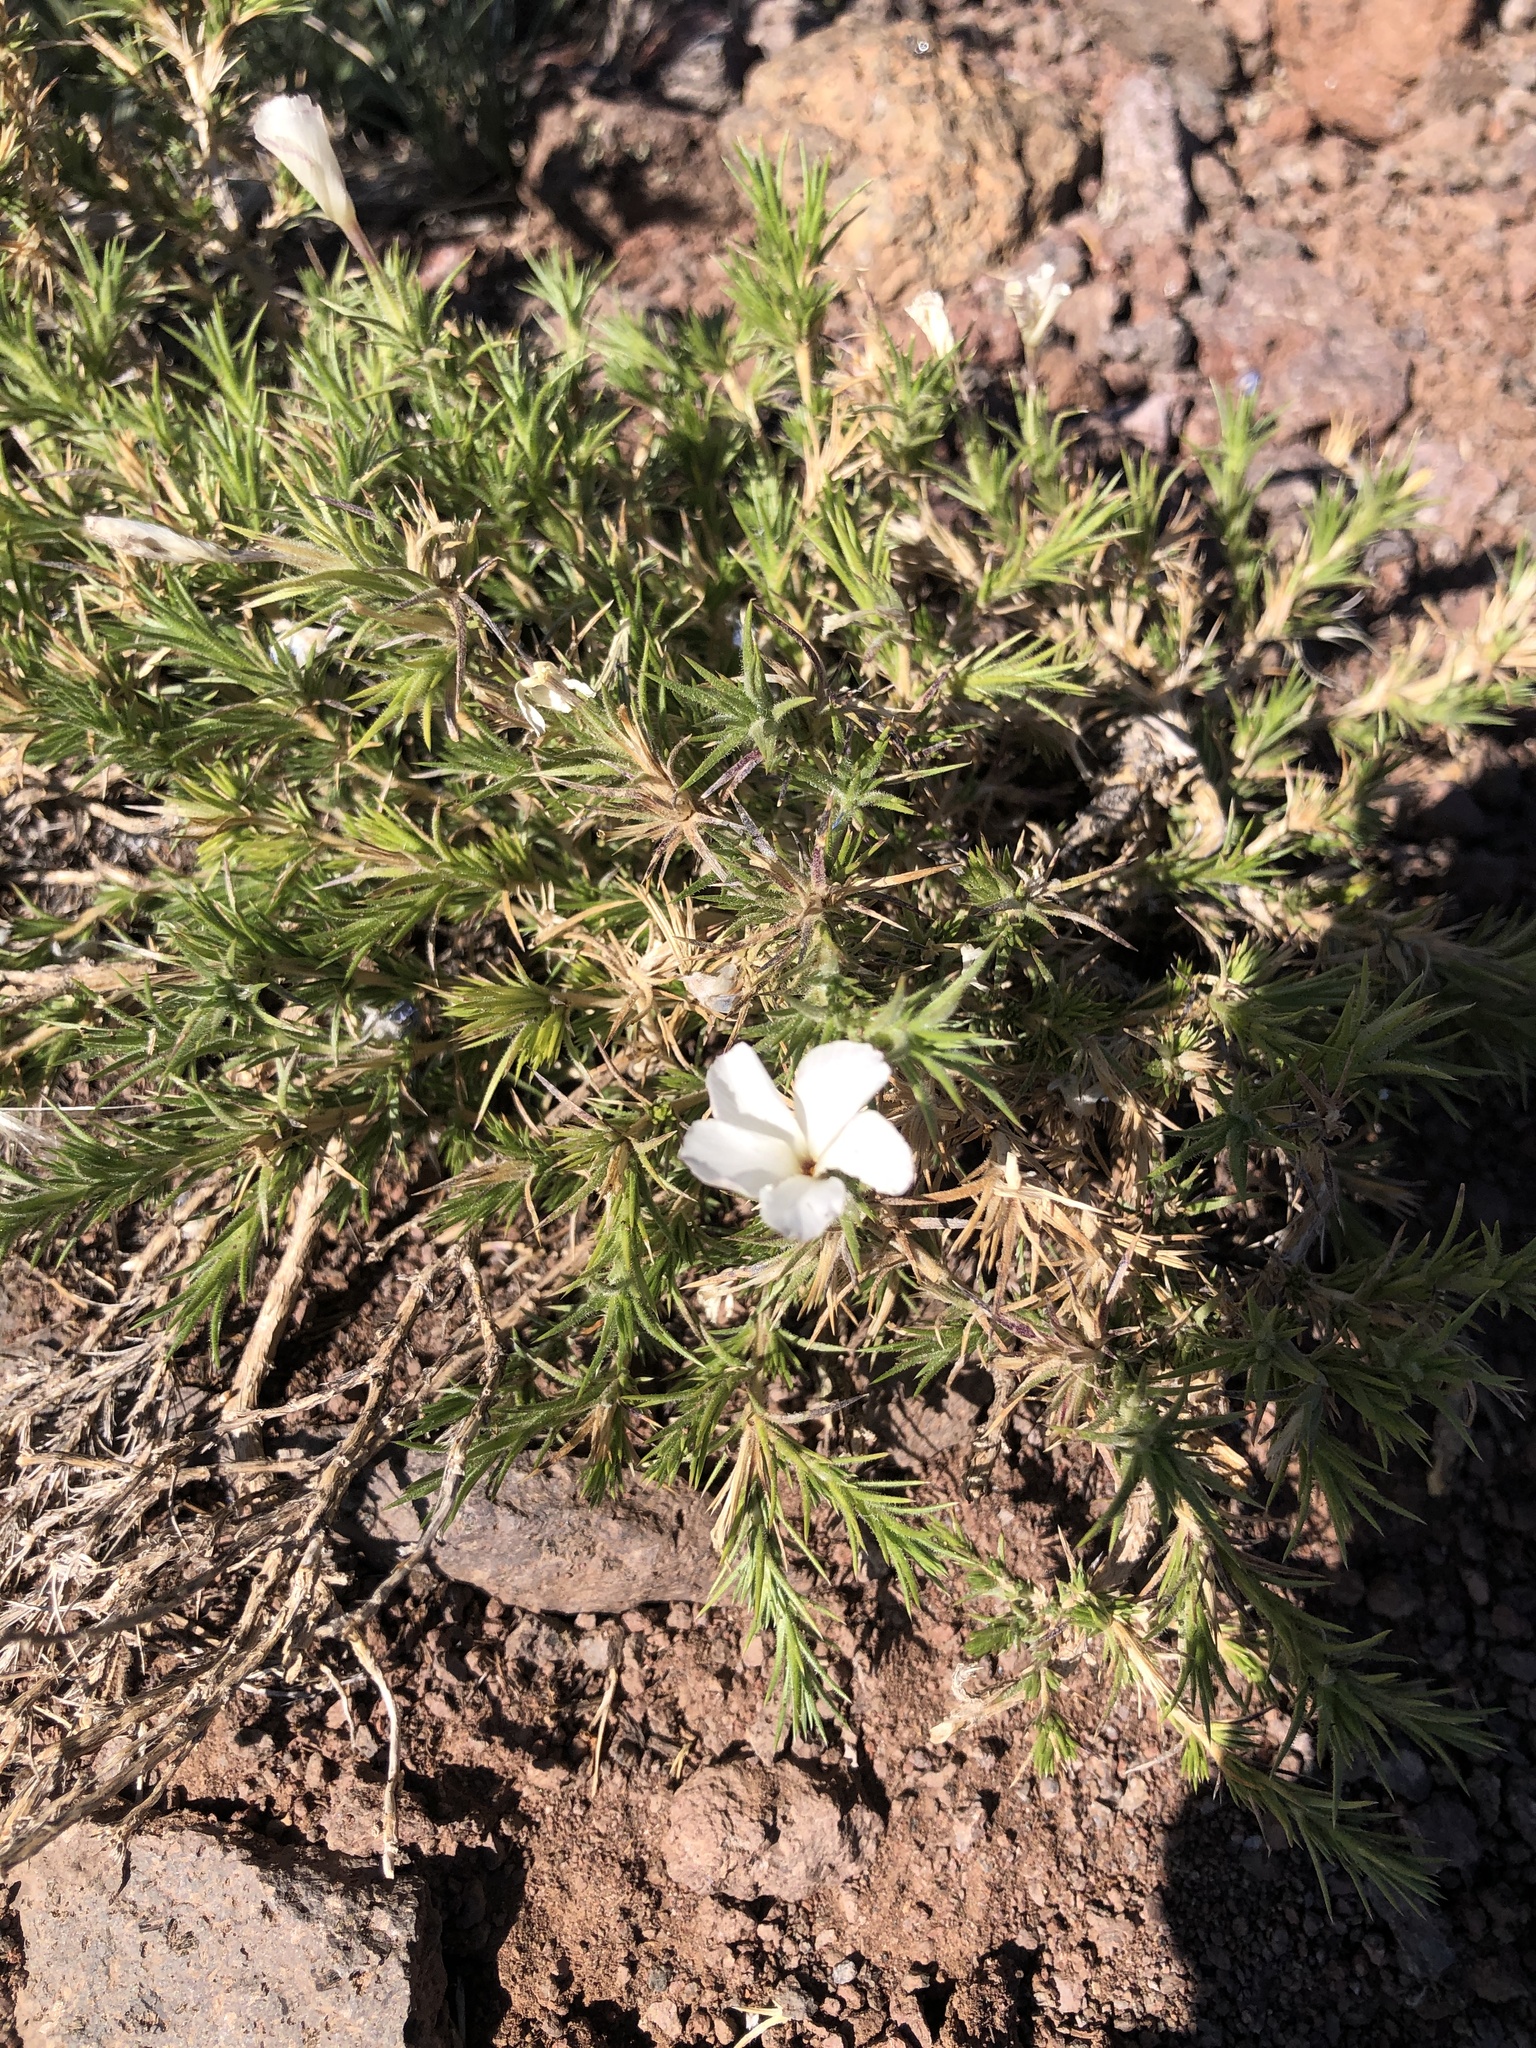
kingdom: Plantae
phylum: Tracheophyta
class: Magnoliopsida
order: Ericales
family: Polemoniaceae
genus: Linanthus
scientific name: Linanthus pungens
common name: Granite prickly phlox
